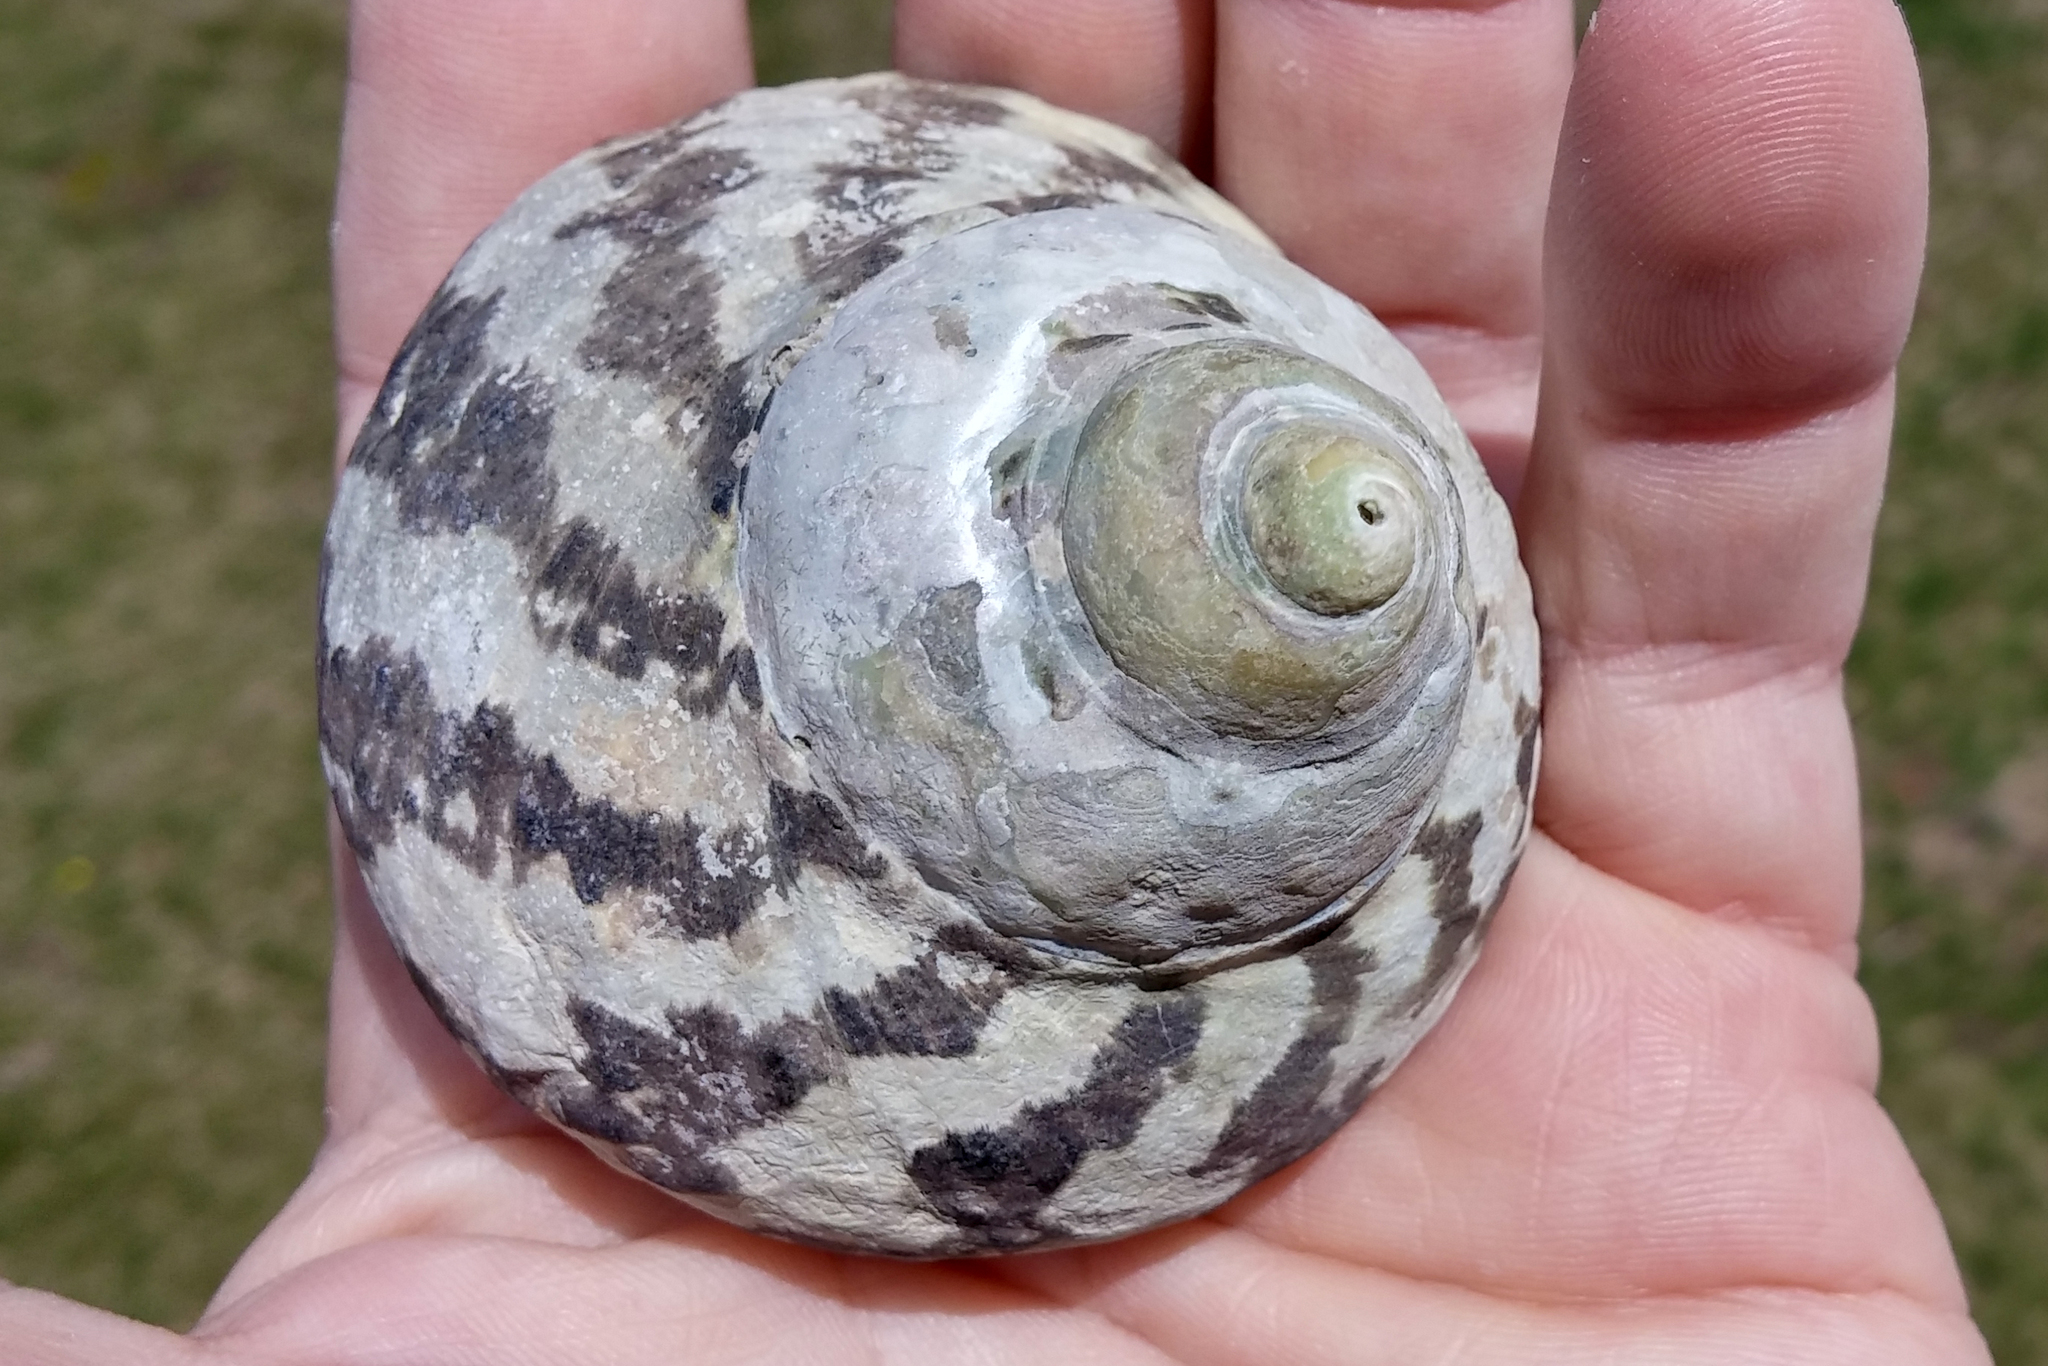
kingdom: Animalia
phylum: Mollusca
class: Gastropoda
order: Trochida
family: Tegulidae
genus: Cittarium
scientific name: Cittarium pica
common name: West indian topshell
